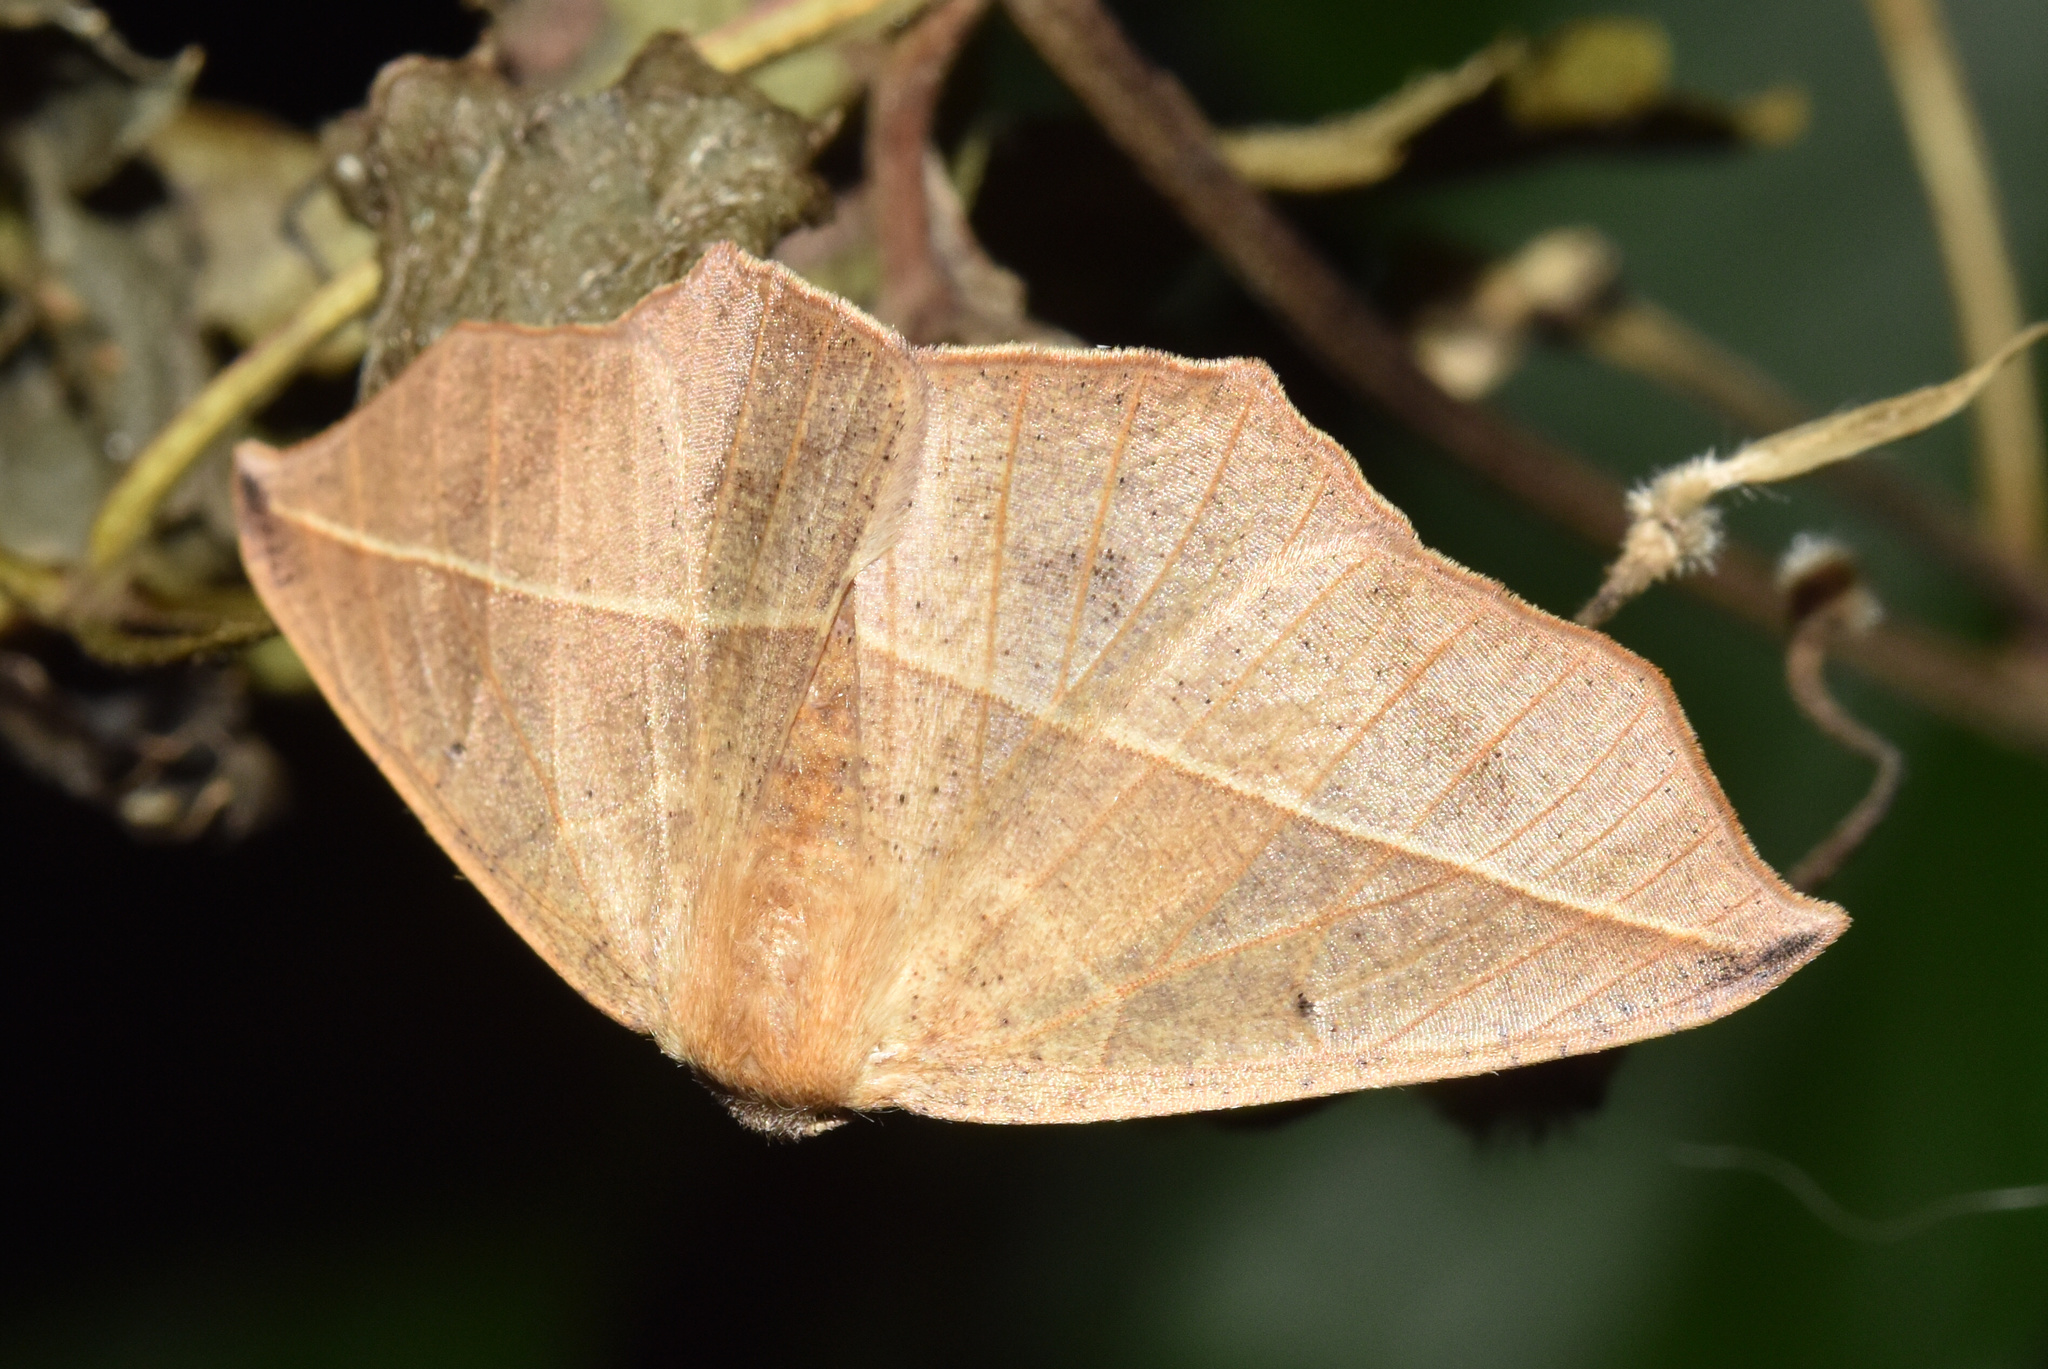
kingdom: Animalia
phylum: Arthropoda
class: Insecta
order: Lepidoptera
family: Geometridae
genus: Psilocerea
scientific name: Psilocerea pulverosa
